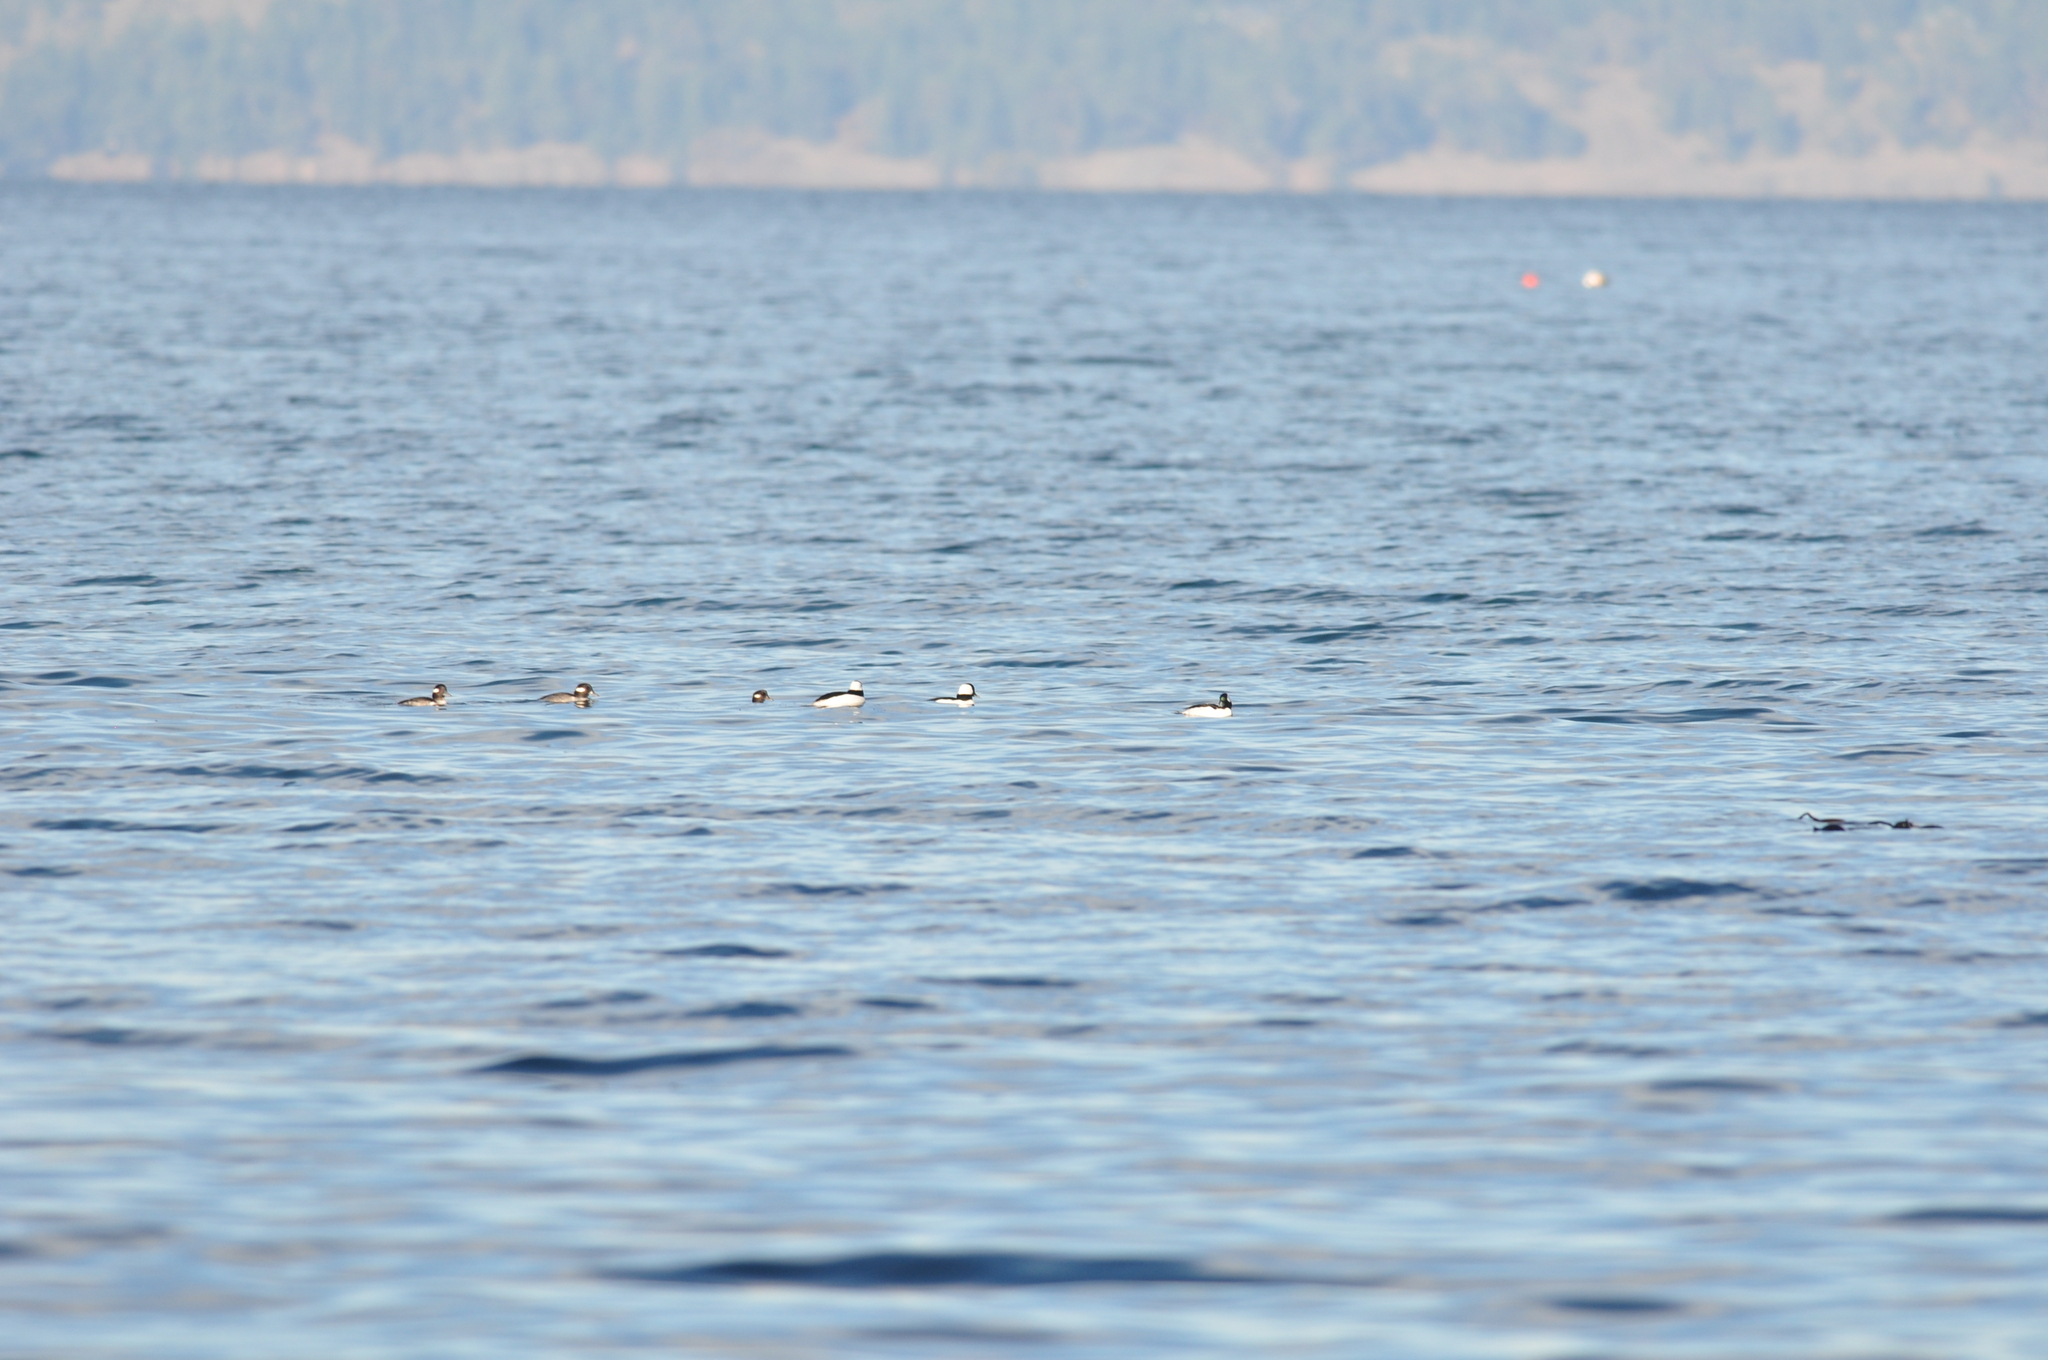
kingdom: Animalia
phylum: Chordata
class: Aves
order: Anseriformes
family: Anatidae
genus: Bucephala
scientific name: Bucephala albeola
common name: Bufflehead
